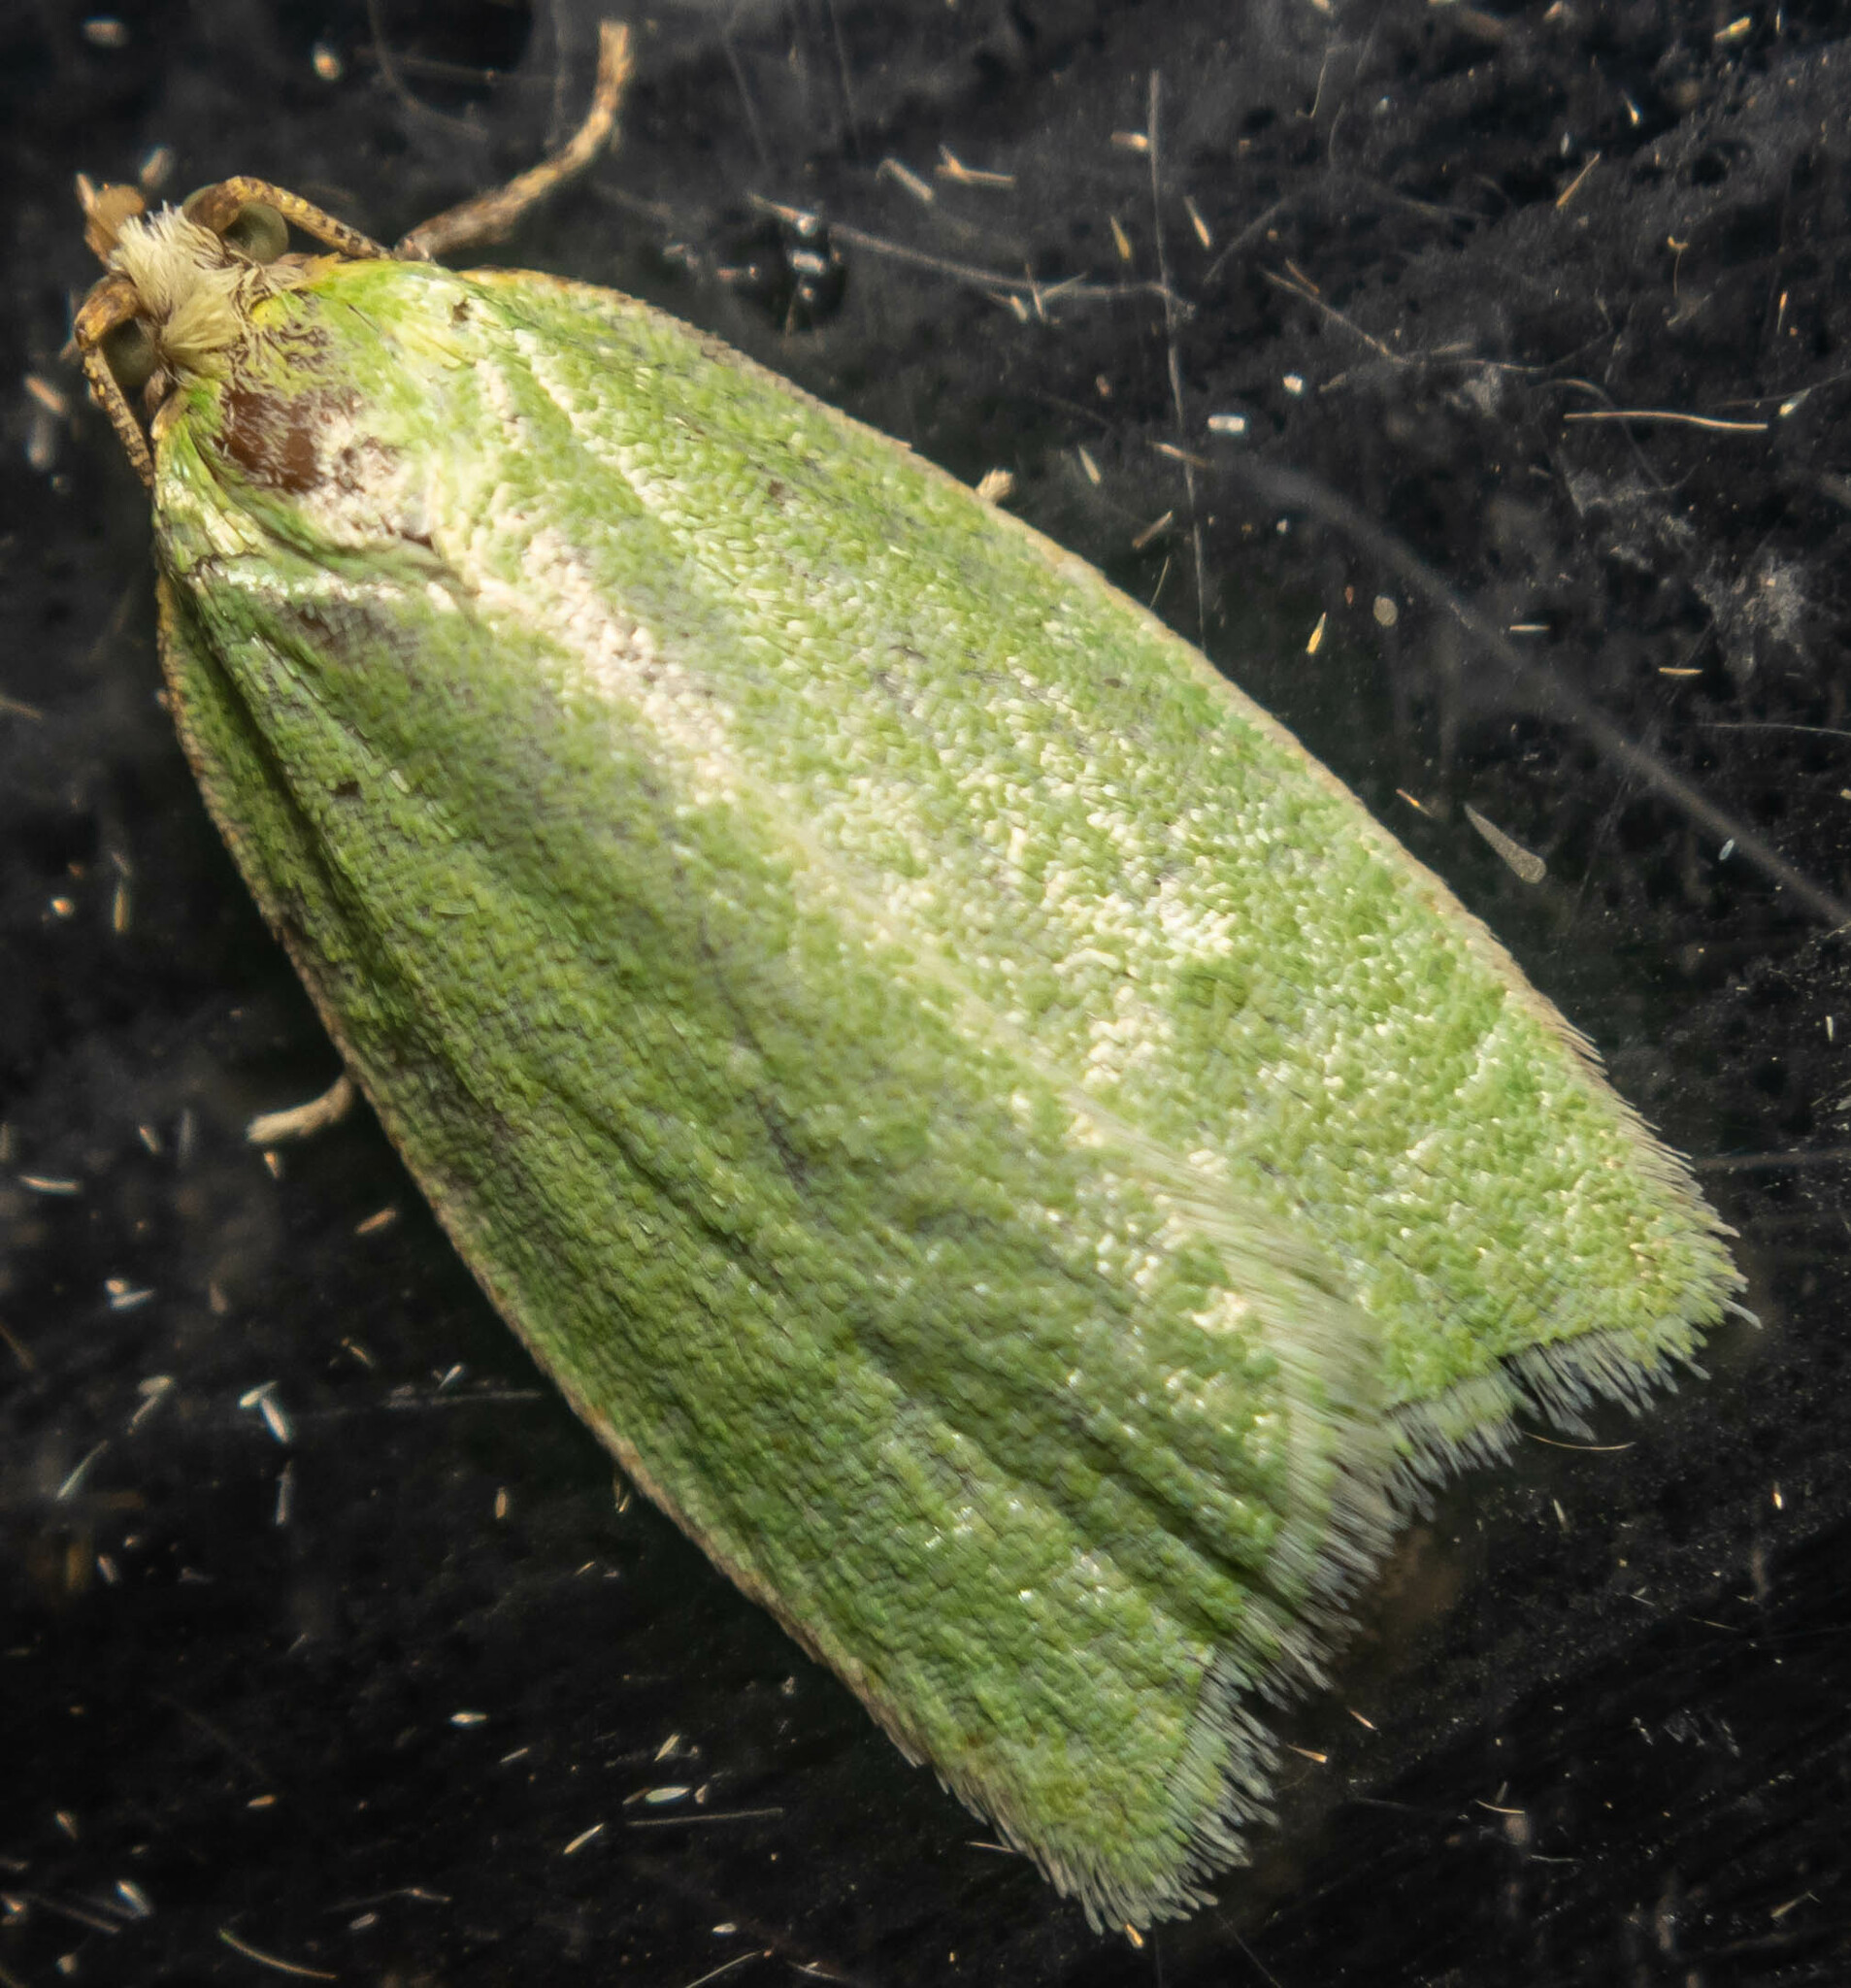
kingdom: Animalia
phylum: Arthropoda
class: Insecta
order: Lepidoptera
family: Tortricidae
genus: Tortrix
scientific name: Tortrix viridana
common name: Green oak tortrix
